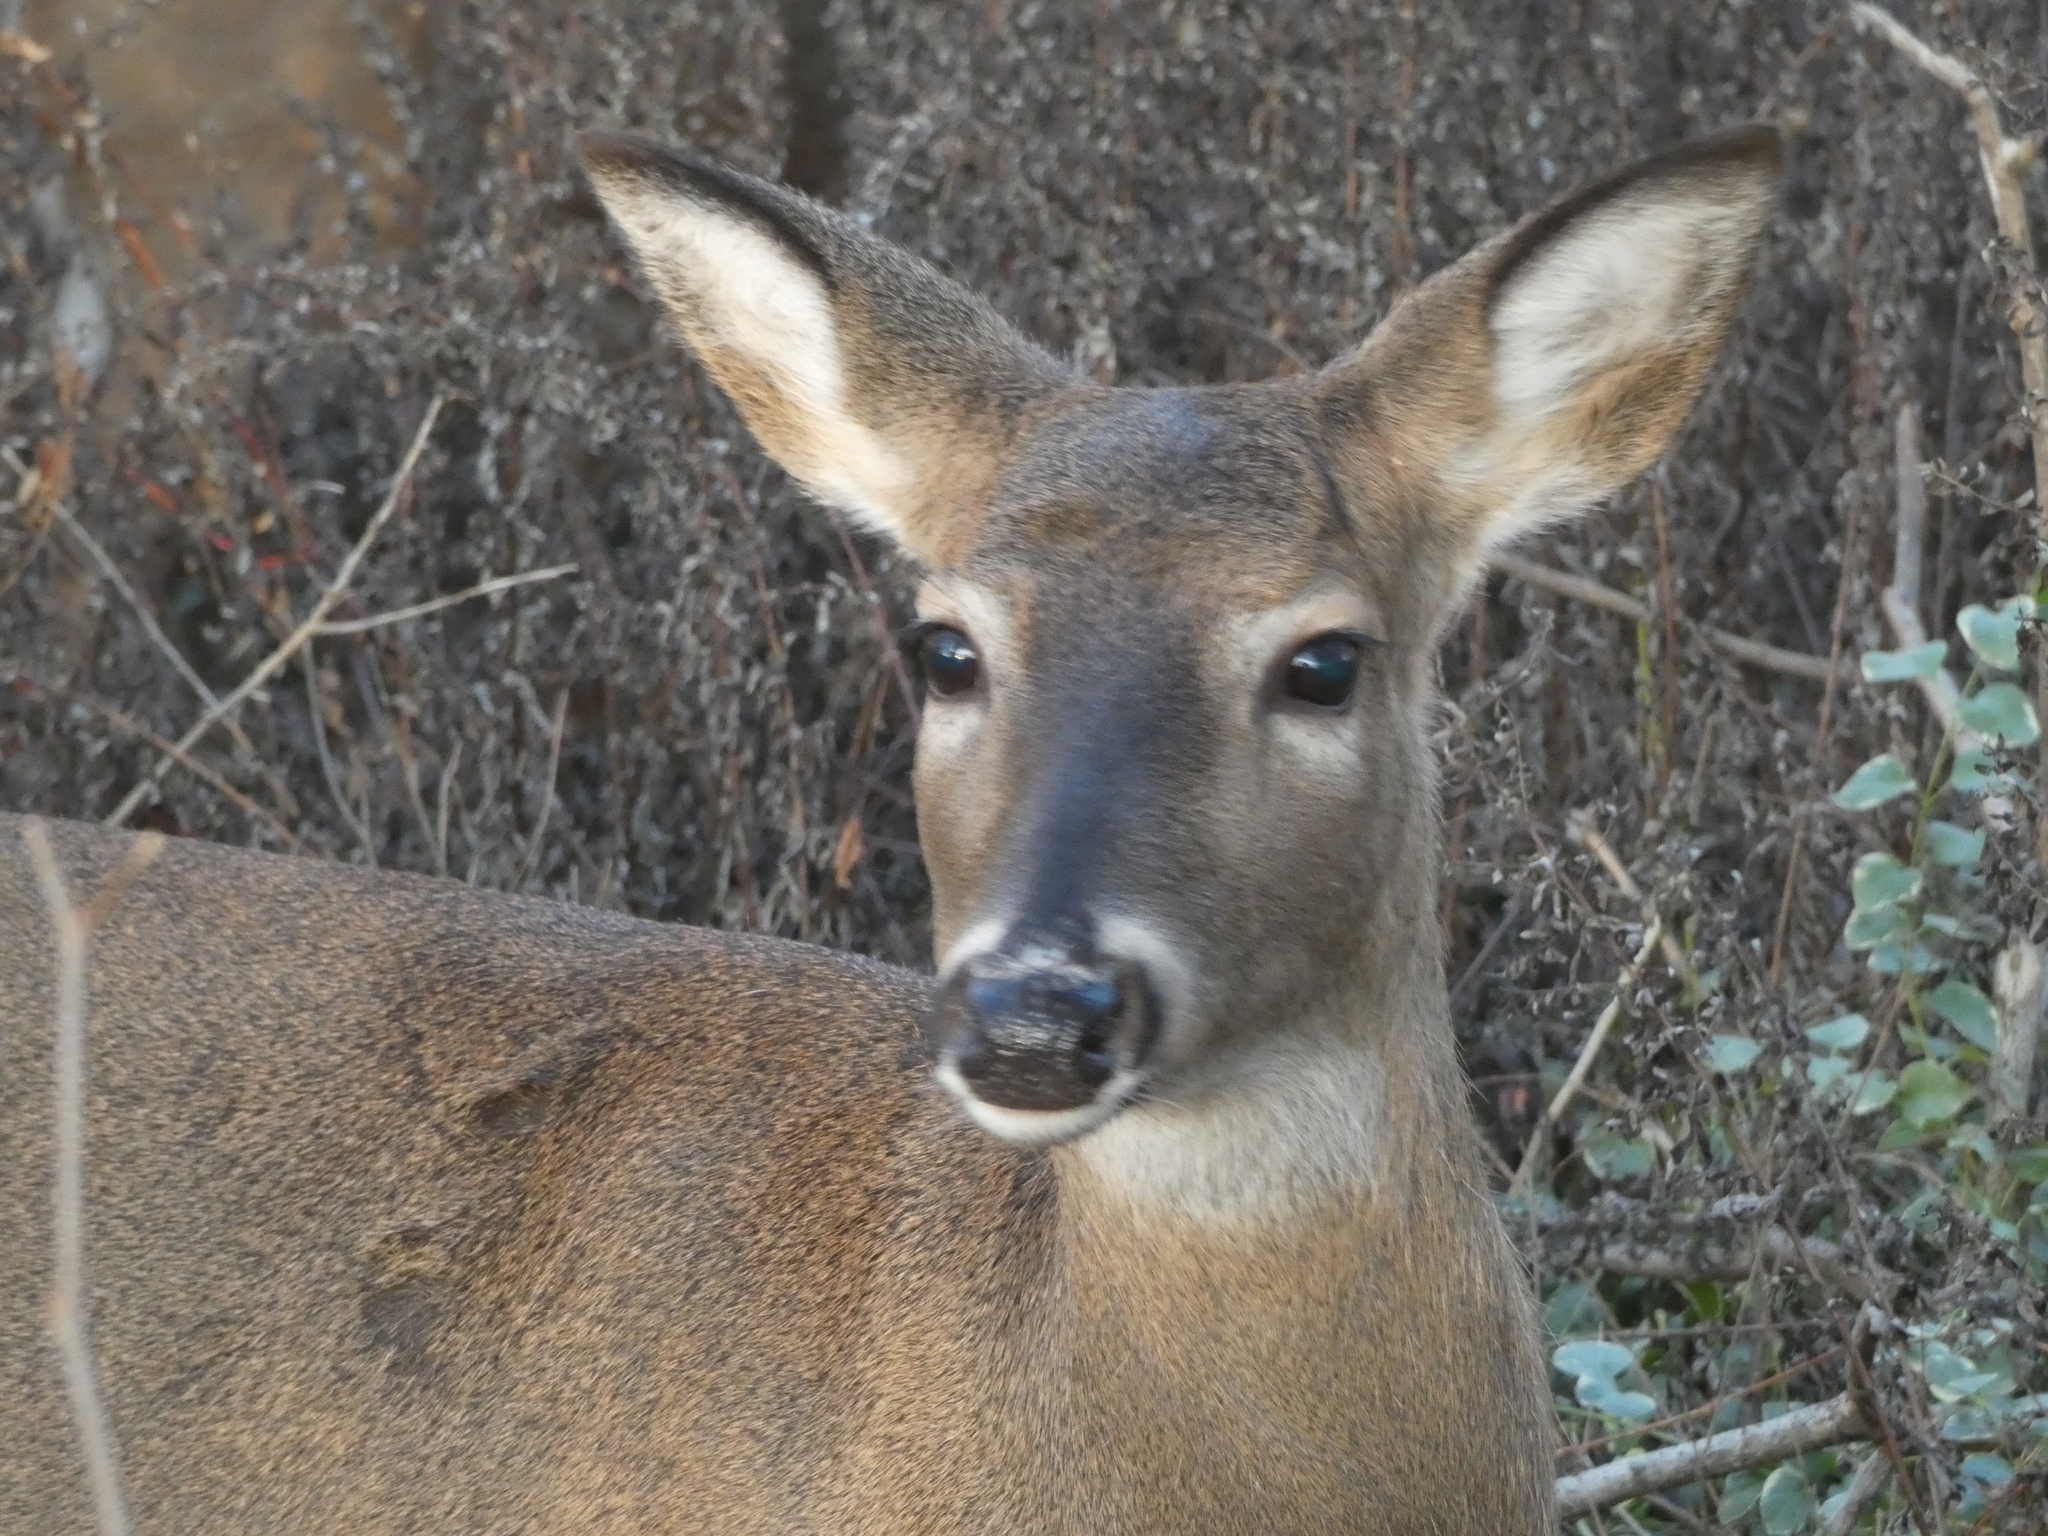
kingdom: Animalia
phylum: Chordata
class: Mammalia
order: Artiodactyla
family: Cervidae
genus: Odocoileus
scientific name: Odocoileus virginianus
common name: White-tailed deer
